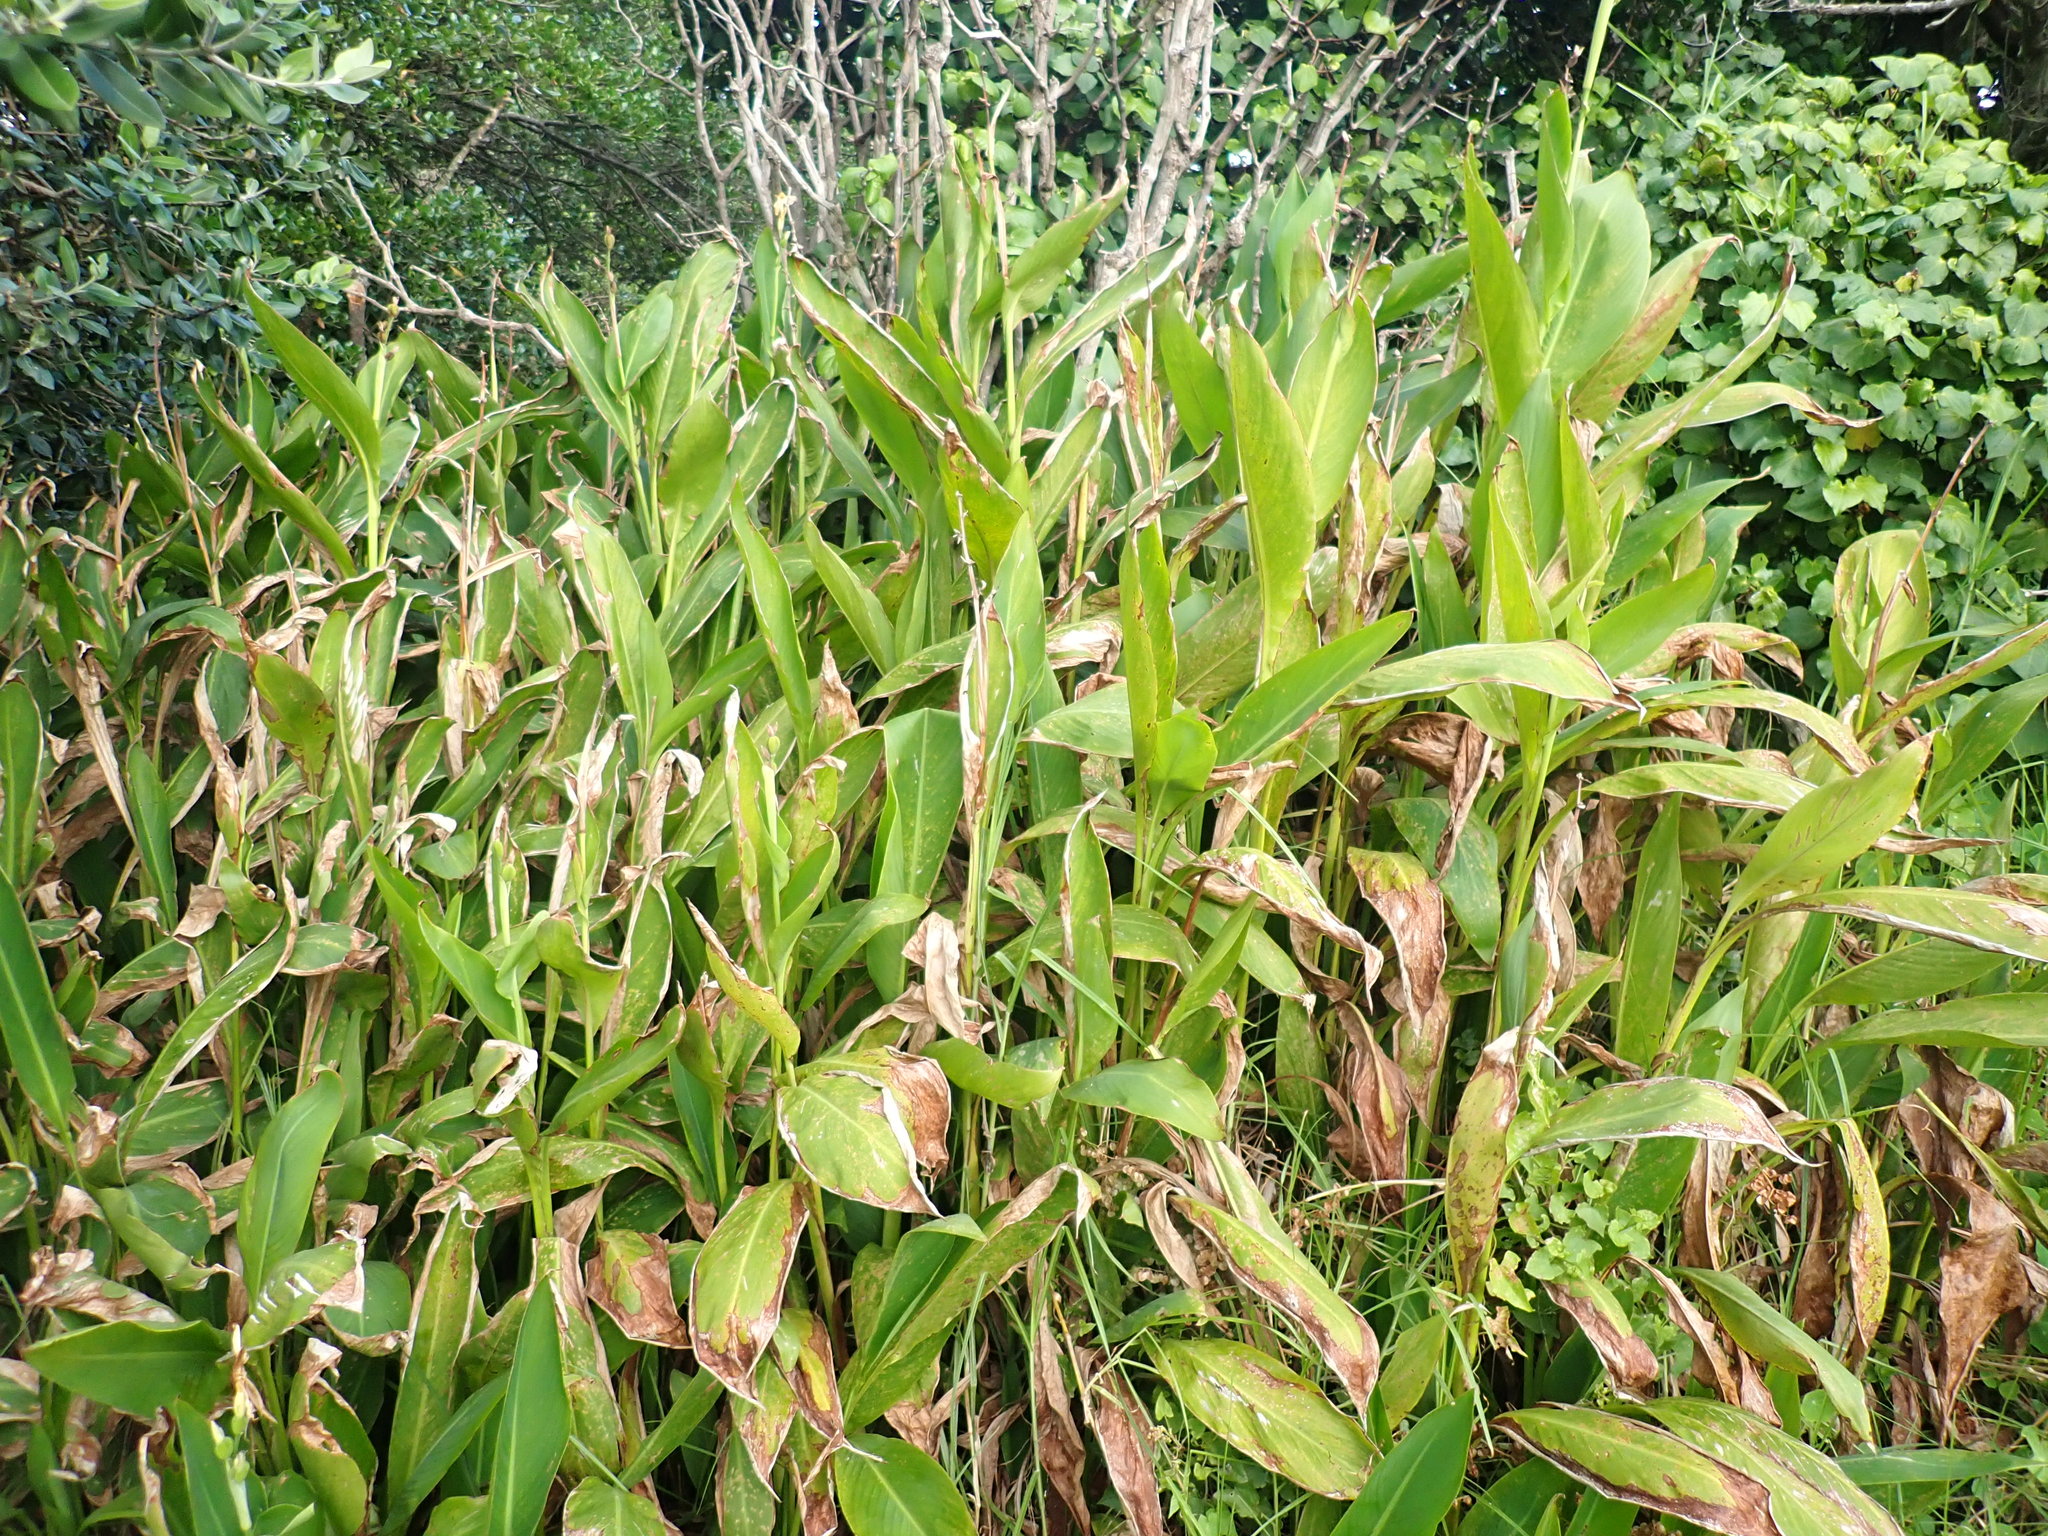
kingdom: Plantae
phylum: Tracheophyta
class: Liliopsida
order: Zingiberales
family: Cannaceae
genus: Canna
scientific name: Canna indica
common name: Indian shot
